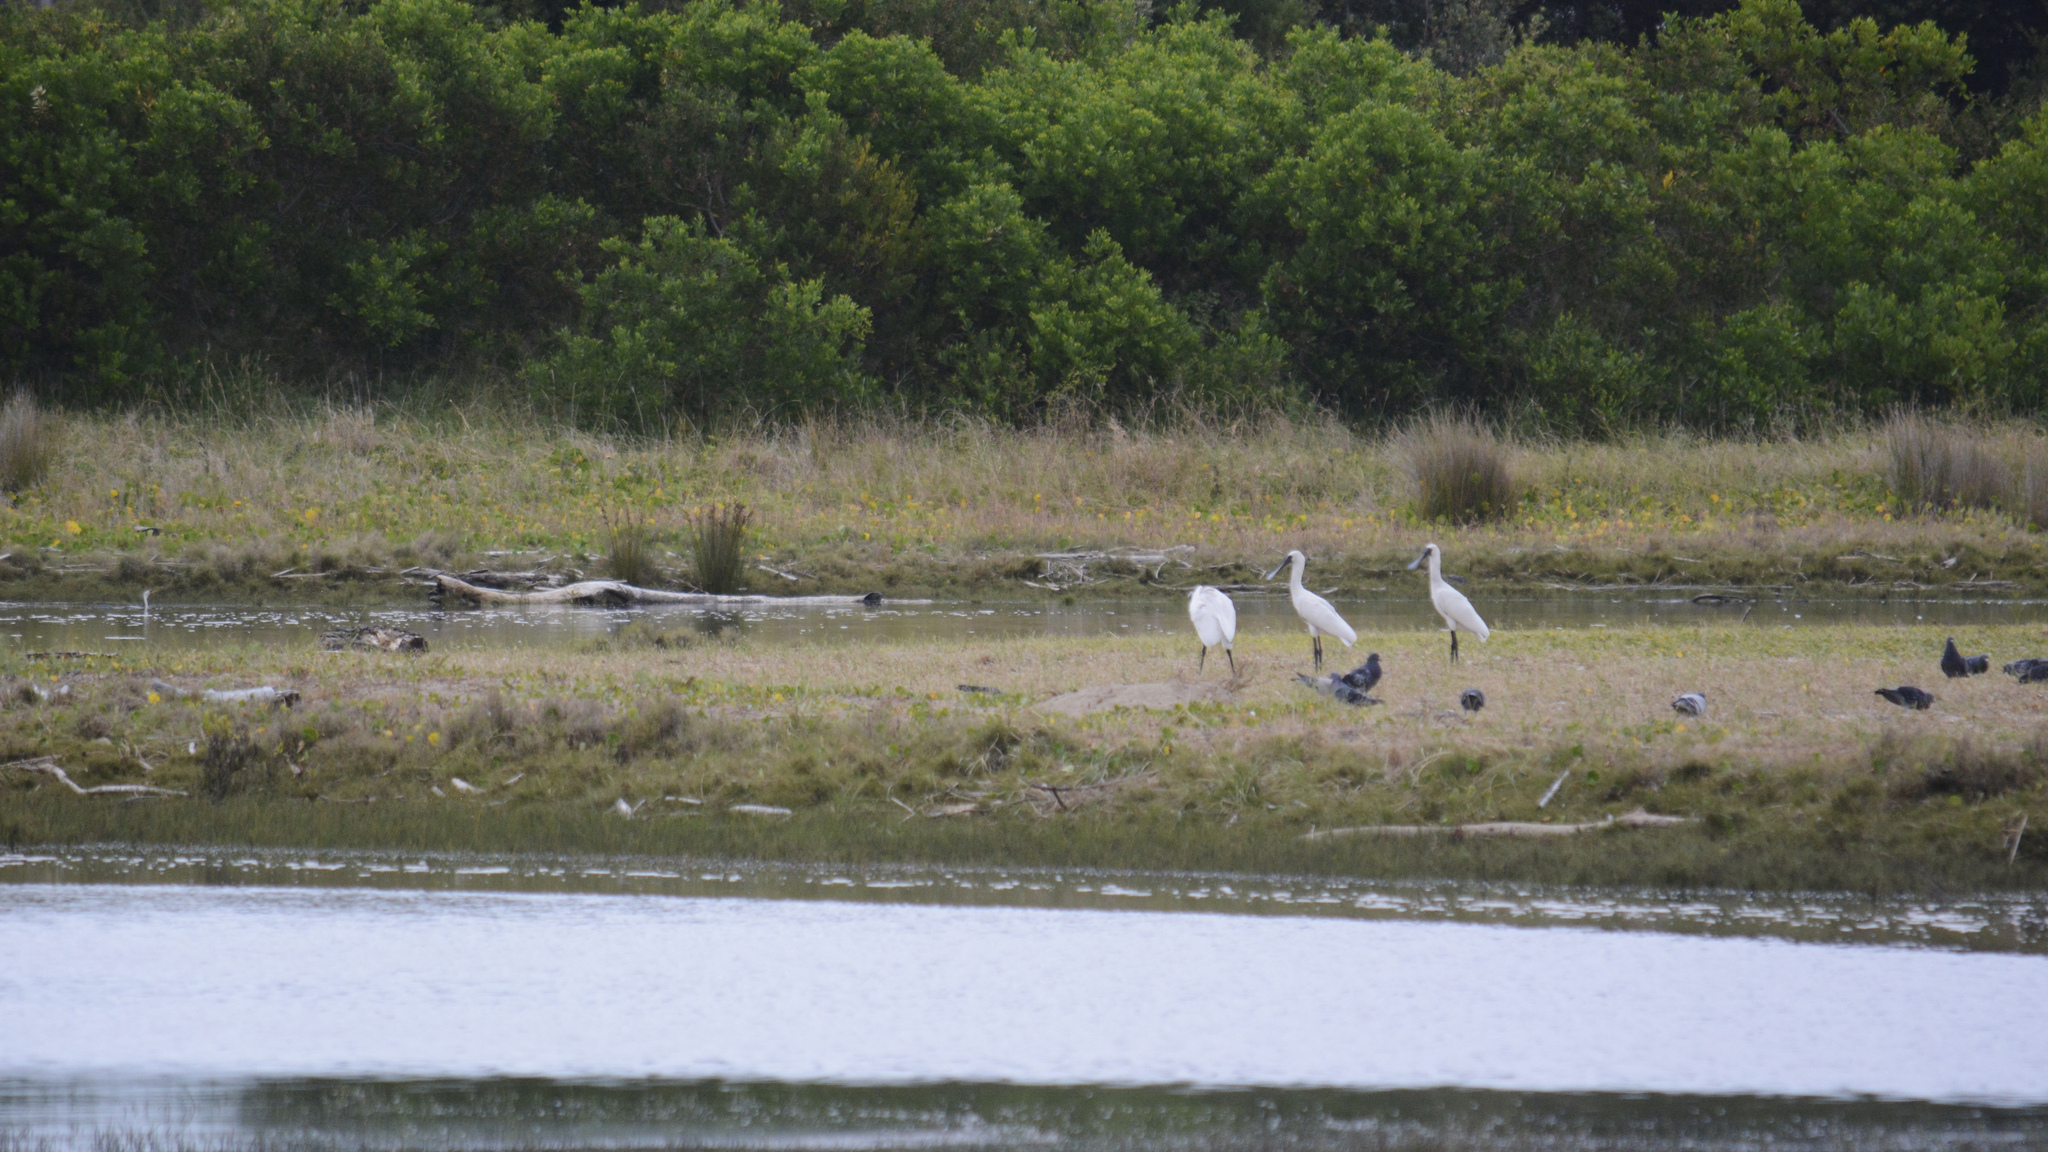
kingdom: Animalia
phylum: Chordata
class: Aves
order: Pelecaniformes
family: Threskiornithidae
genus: Platalea
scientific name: Platalea regia
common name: Royal spoonbill
